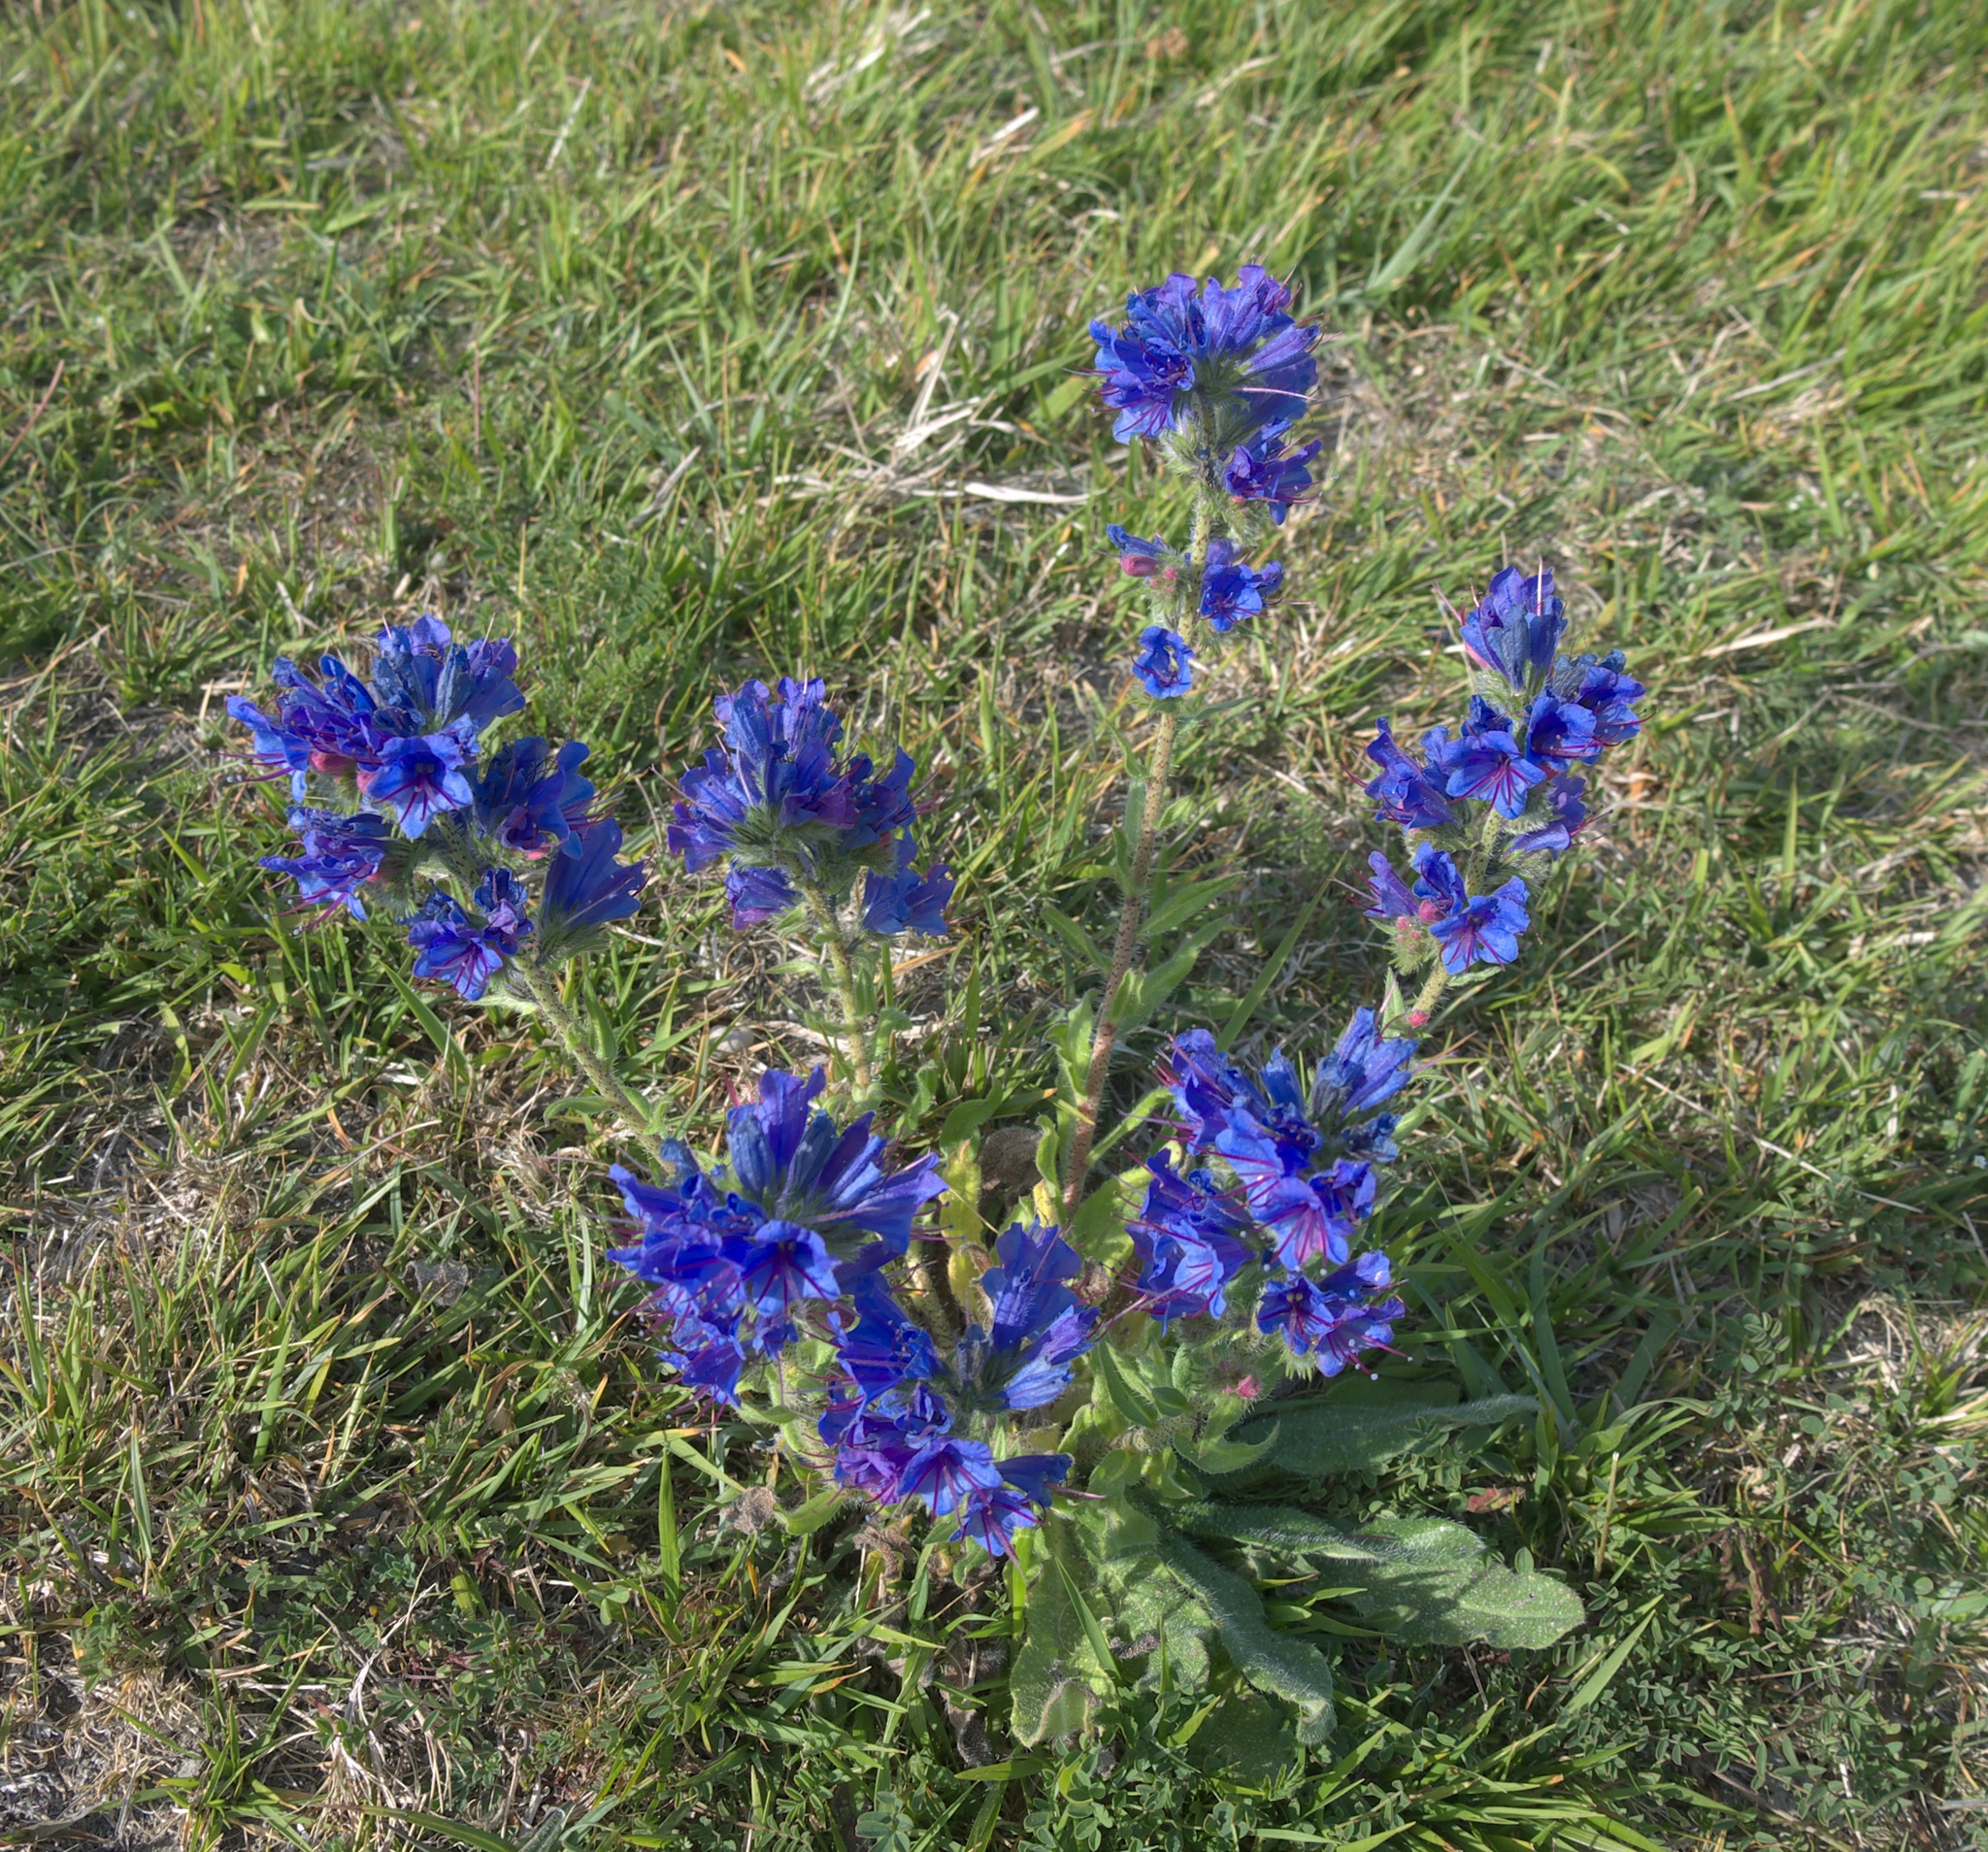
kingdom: Plantae
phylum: Tracheophyta
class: Magnoliopsida
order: Boraginales
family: Boraginaceae
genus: Echium
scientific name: Echium vulgare
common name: Common viper's bugloss
